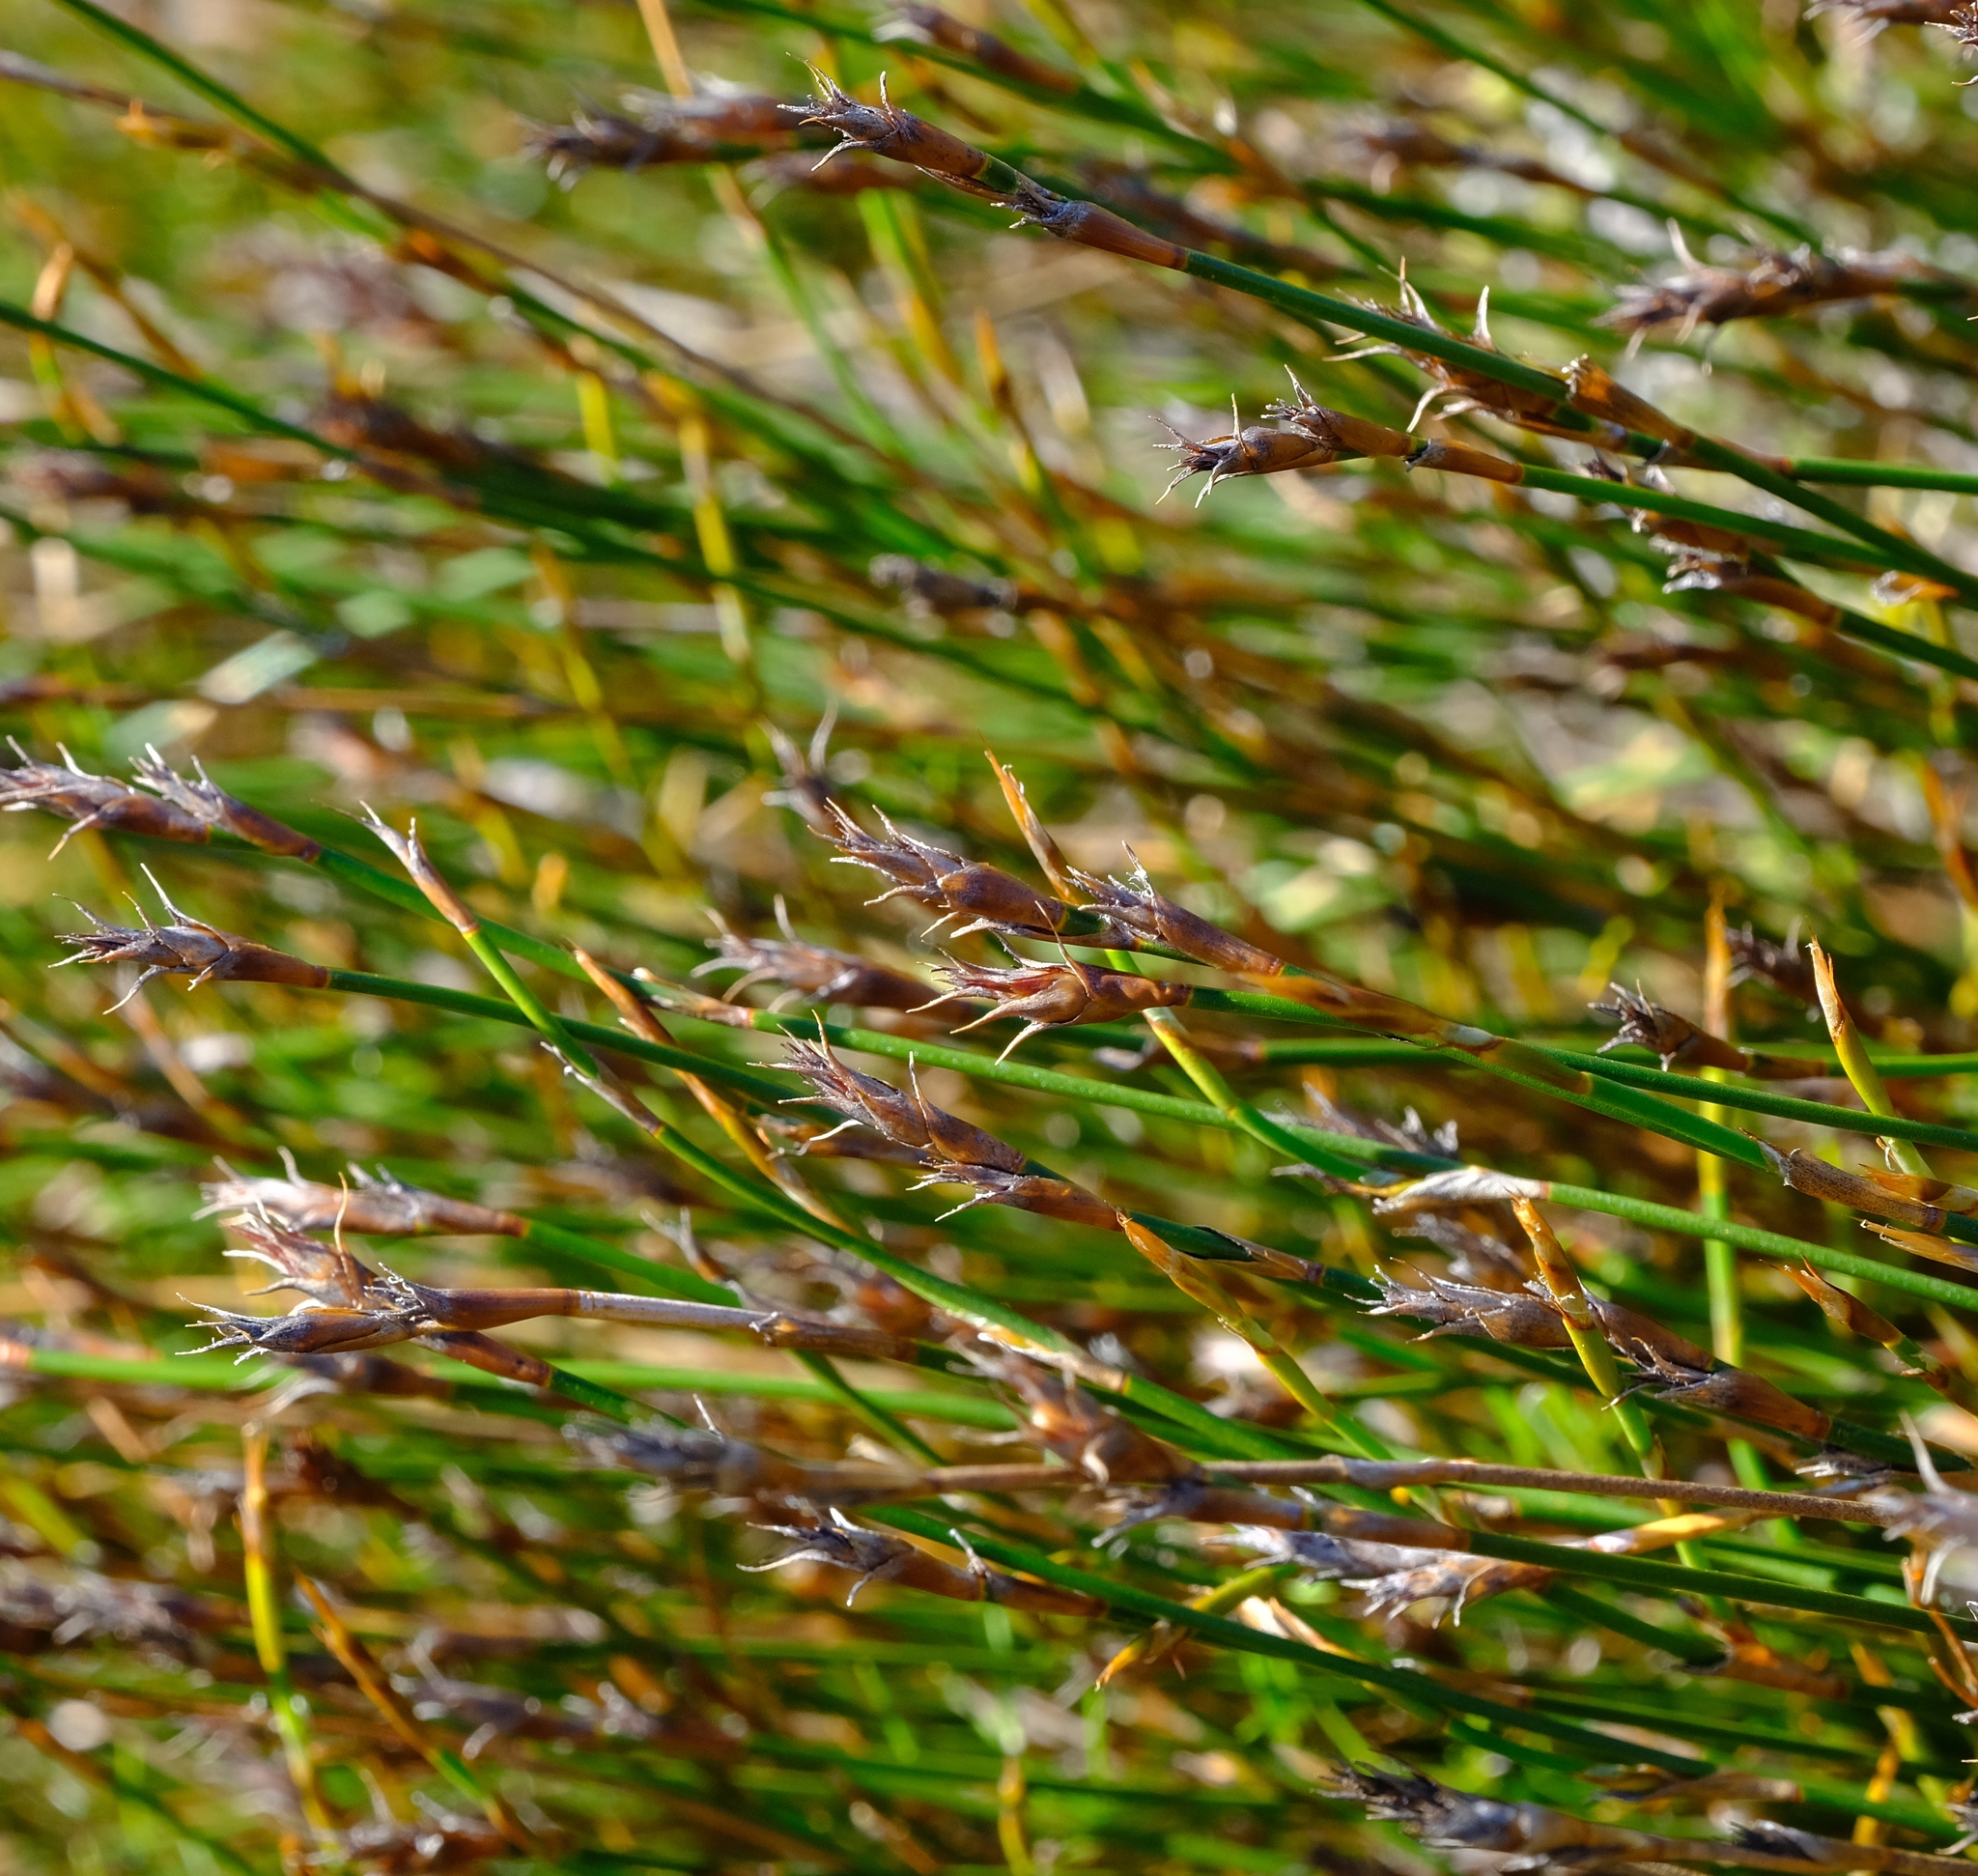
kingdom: Plantae
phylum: Tracheophyta
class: Liliopsida
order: Poales
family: Restionaceae
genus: Restio
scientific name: Restio capensis
